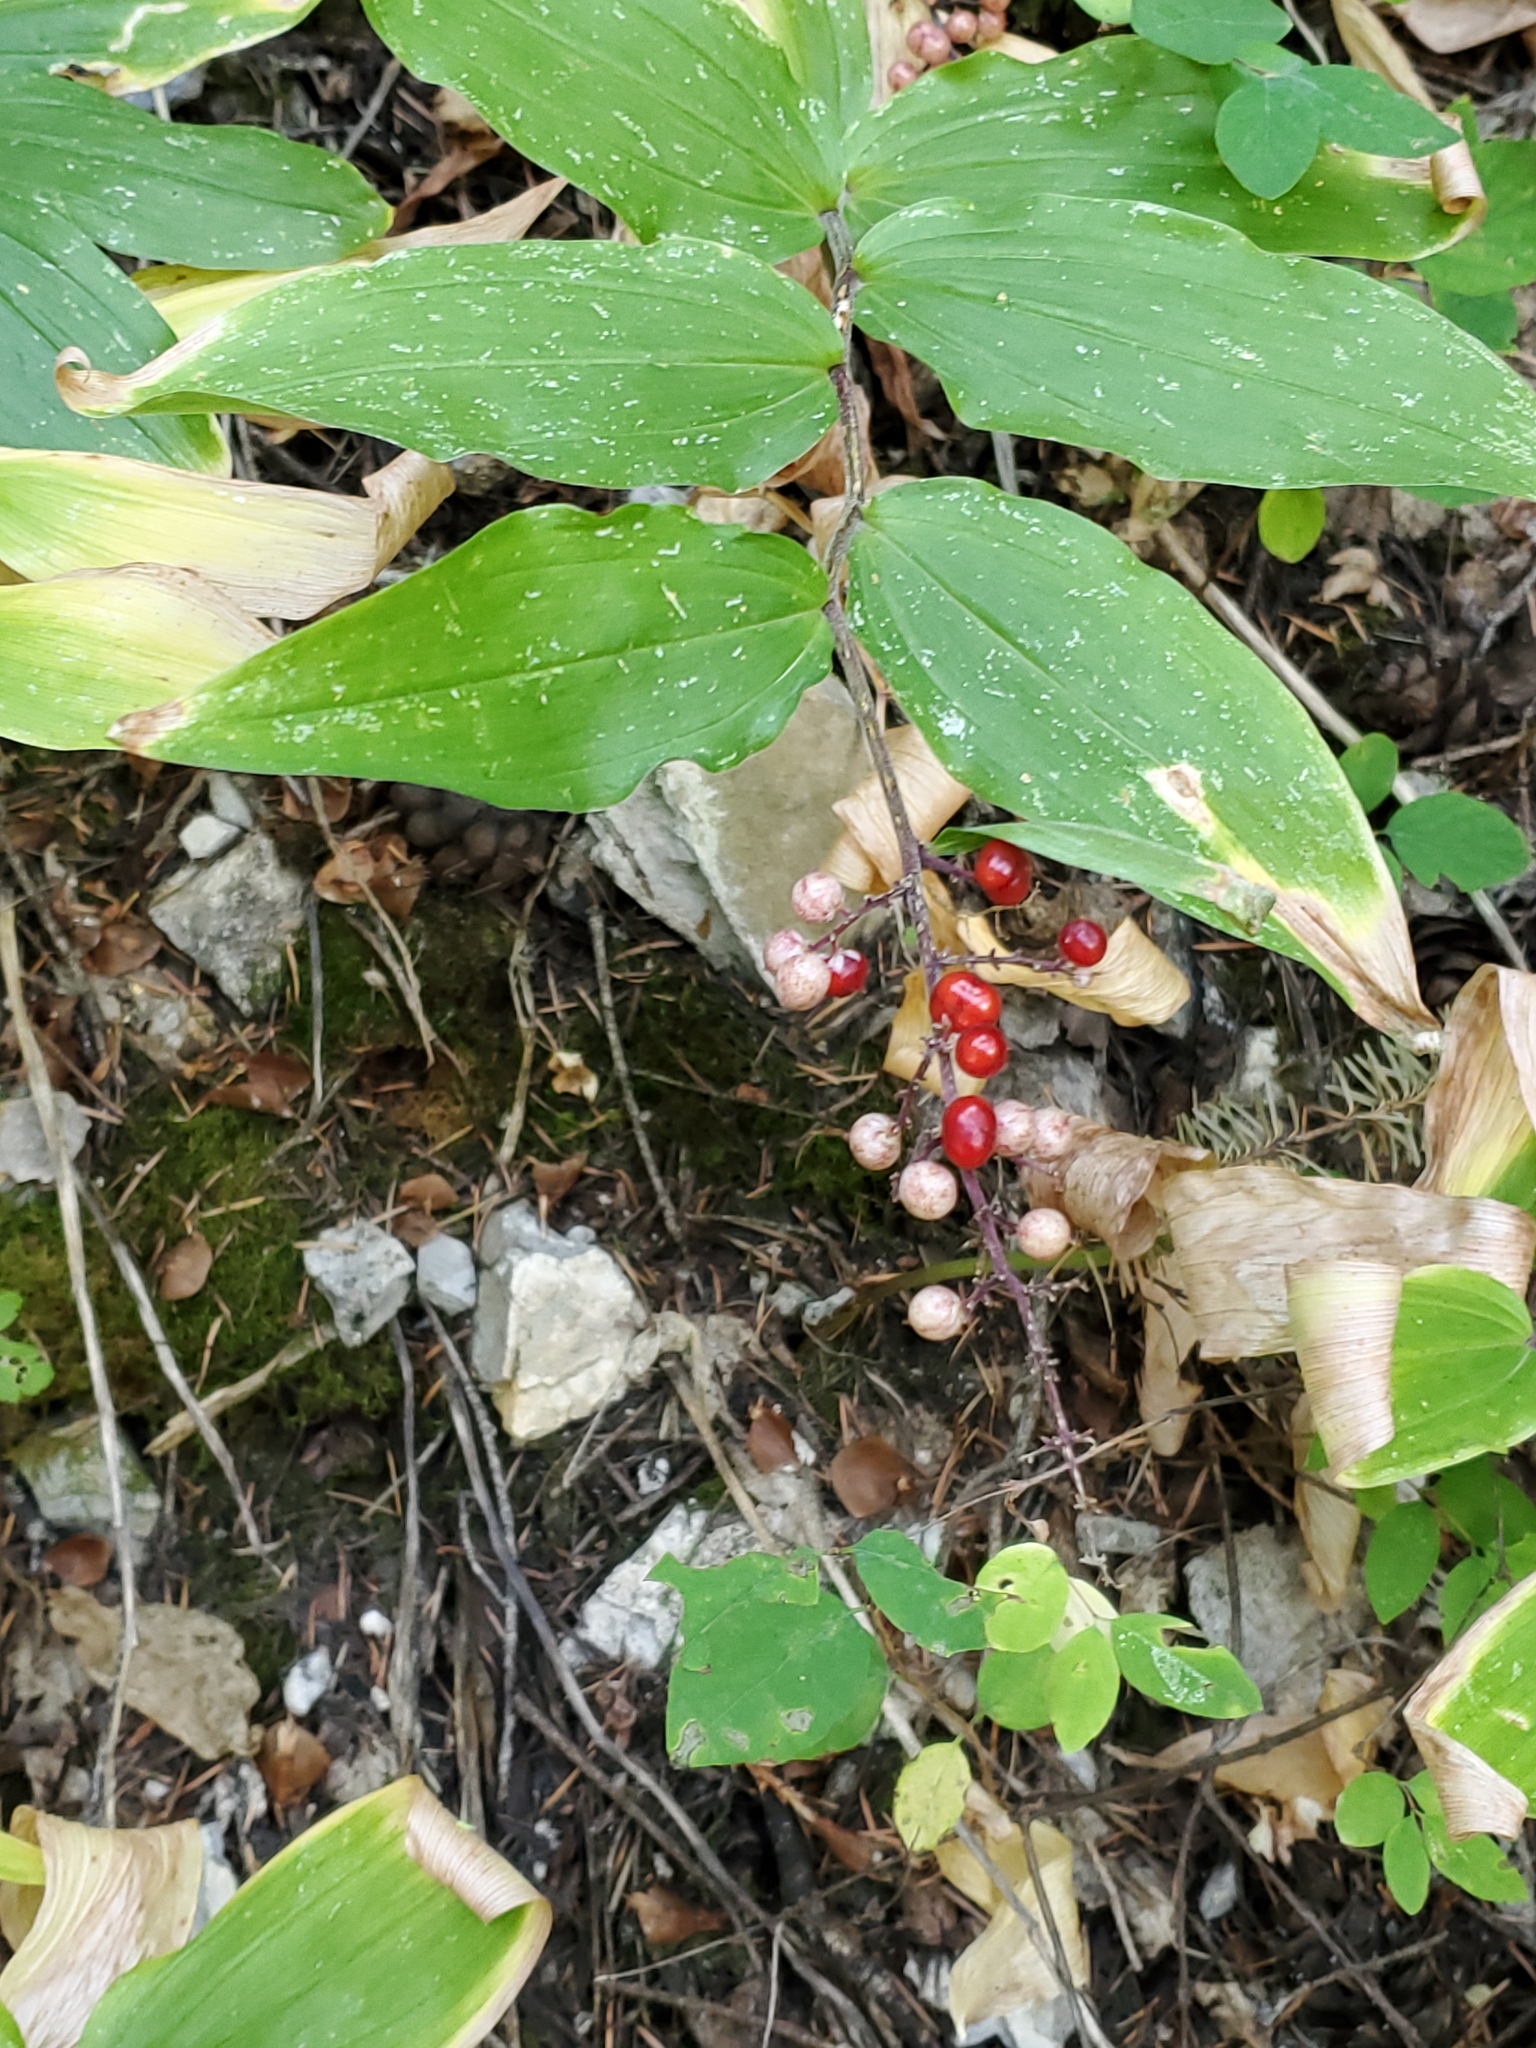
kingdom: Plantae
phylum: Tracheophyta
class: Liliopsida
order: Asparagales
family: Asparagaceae
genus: Maianthemum
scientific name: Maianthemum racemosum
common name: False spikenard
